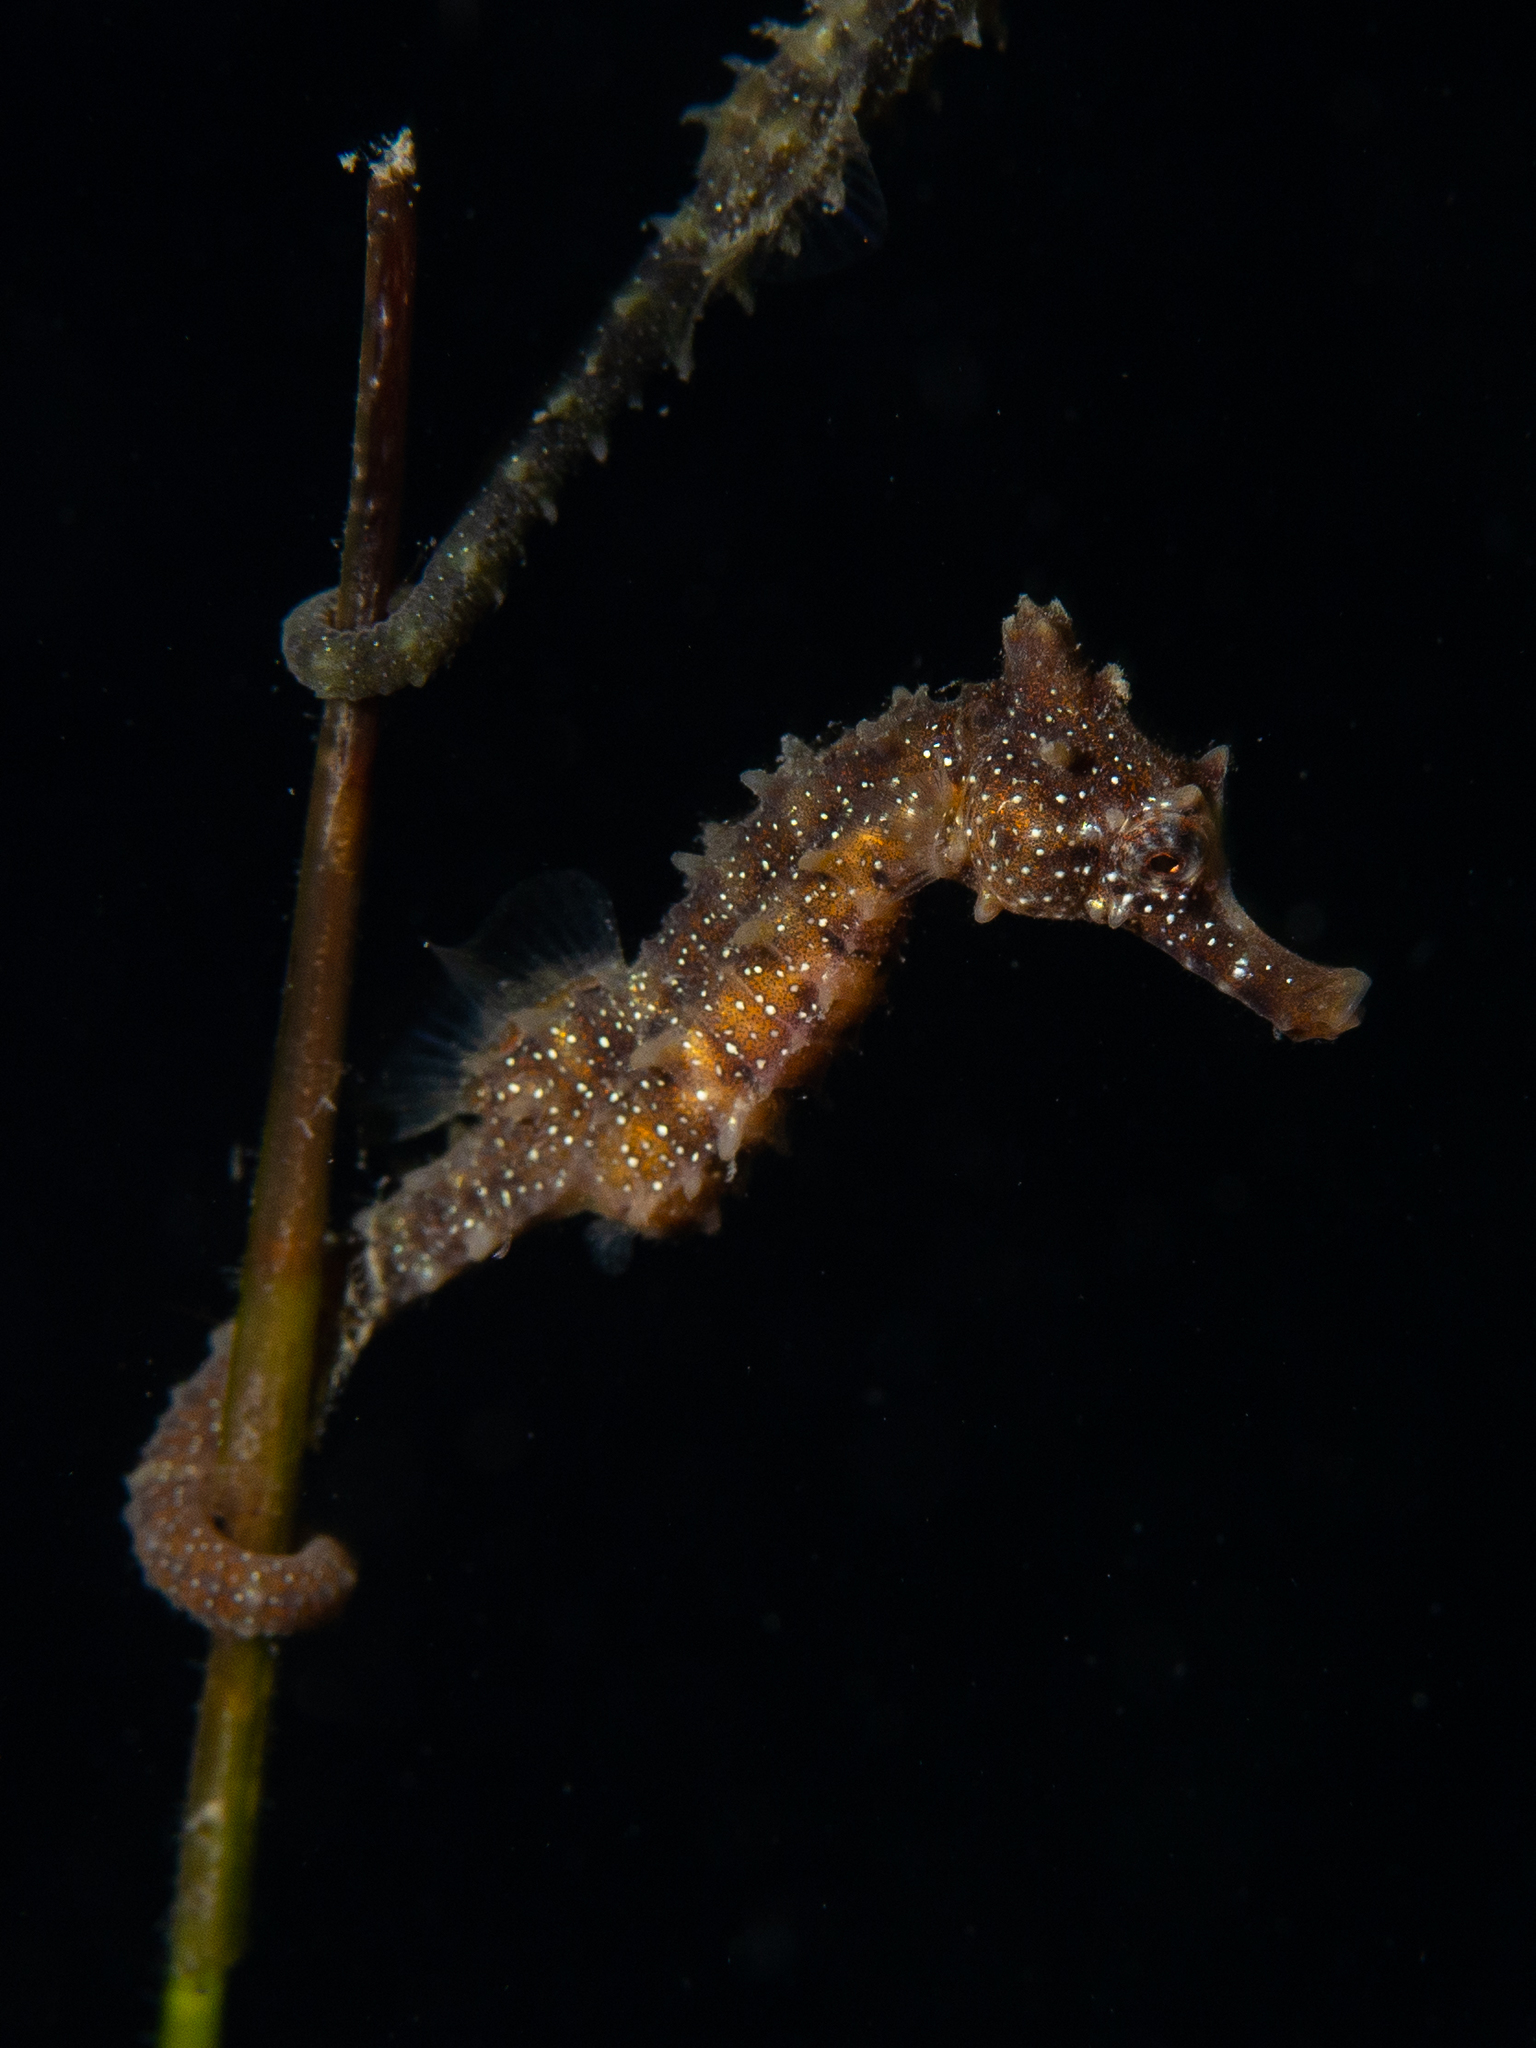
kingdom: Animalia
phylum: Chordata
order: Syngnathiformes
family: Syngnathidae
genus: Hippocampus
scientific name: Hippocampus breviceps
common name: Knobby seahorse
